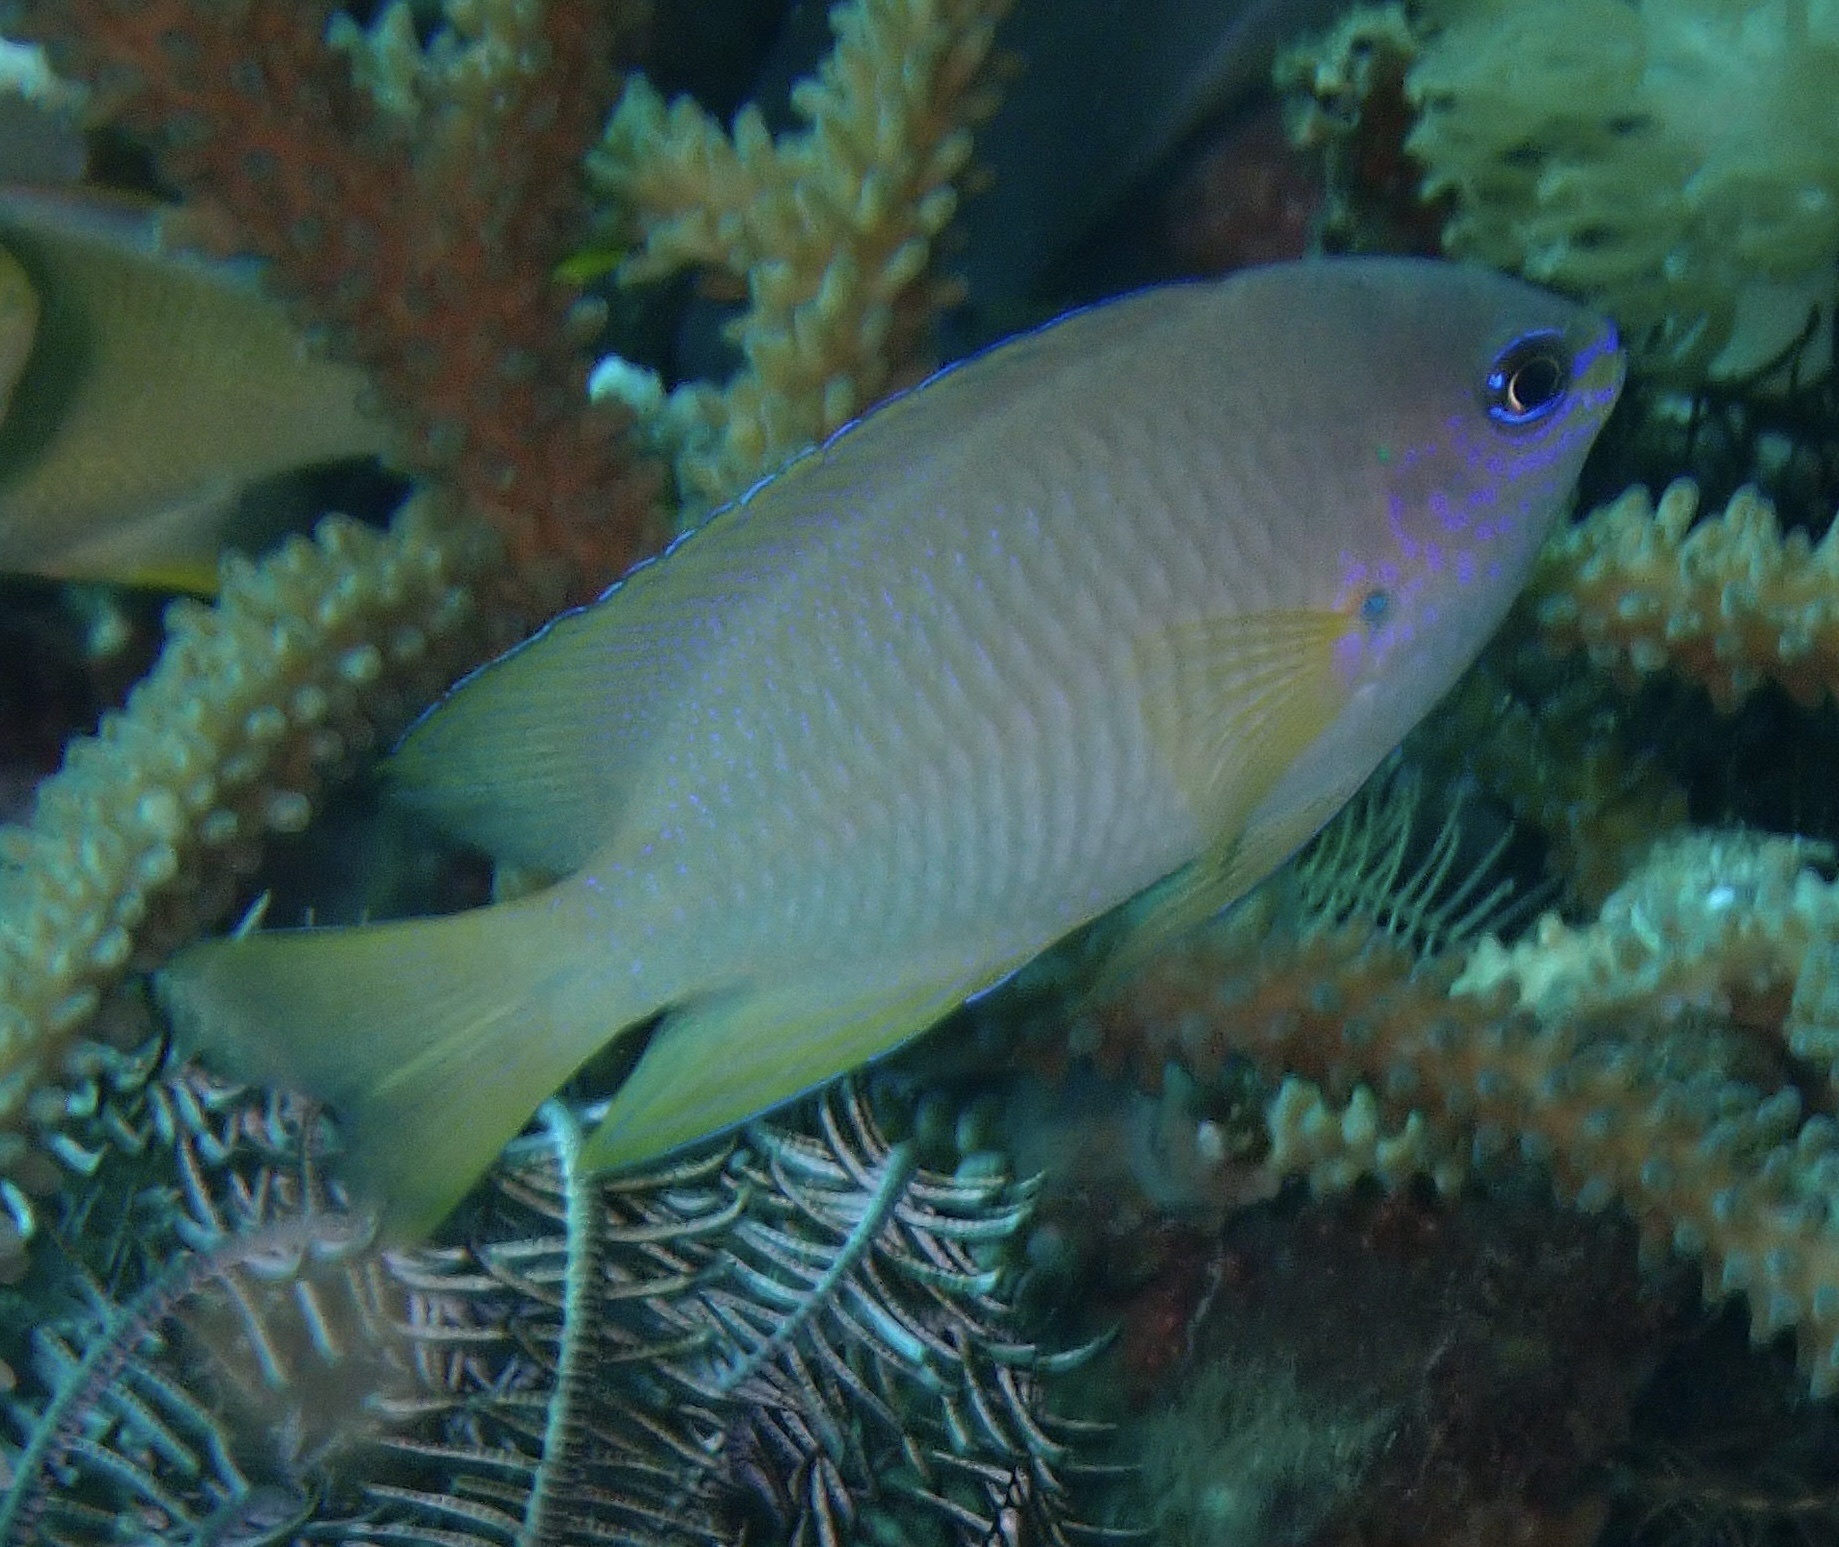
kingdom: Animalia
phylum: Chordata
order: Perciformes
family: Pomacentridae
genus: Pomacentrus
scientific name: Pomacentrus amboinensis
